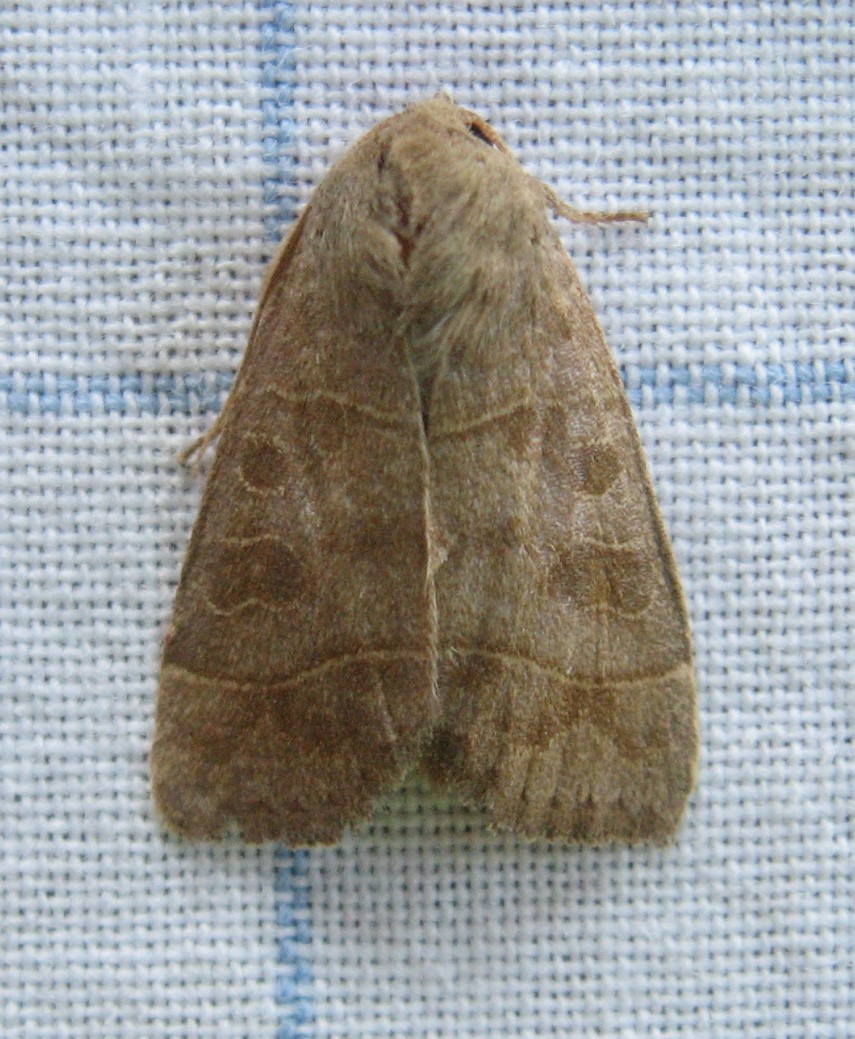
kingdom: Animalia
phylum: Arthropoda
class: Insecta
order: Lepidoptera
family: Noctuidae
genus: Ipimorpha
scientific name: Ipimorpha pleonectusa
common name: Even-lined sallow
